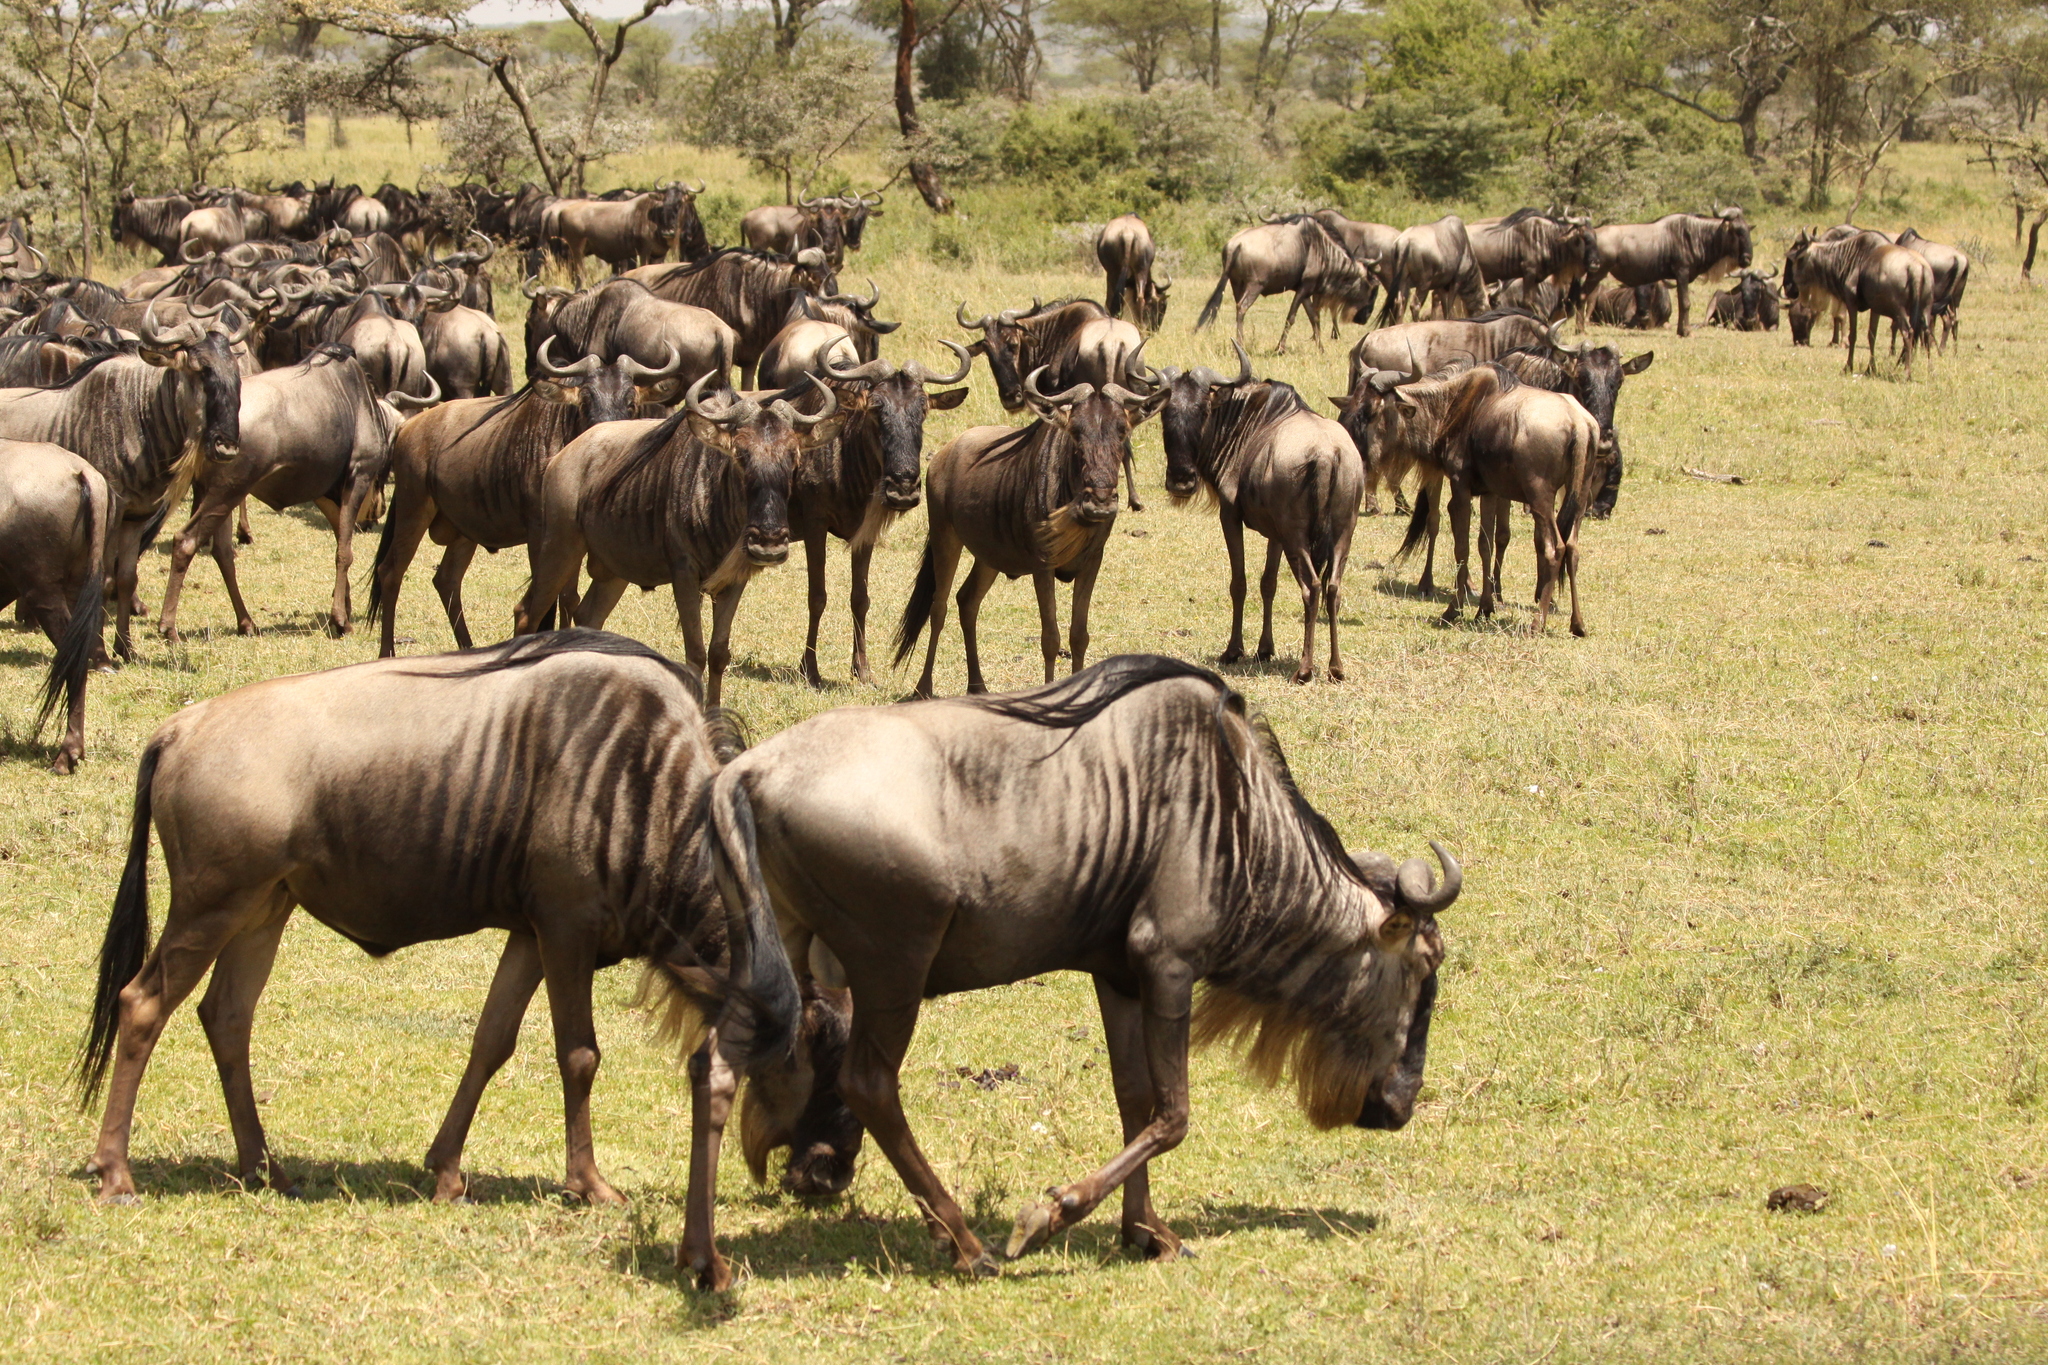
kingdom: Animalia
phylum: Chordata
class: Mammalia
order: Artiodactyla
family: Bovidae
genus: Connochaetes
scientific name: Connochaetes taurinus
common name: Blue wildebeest
